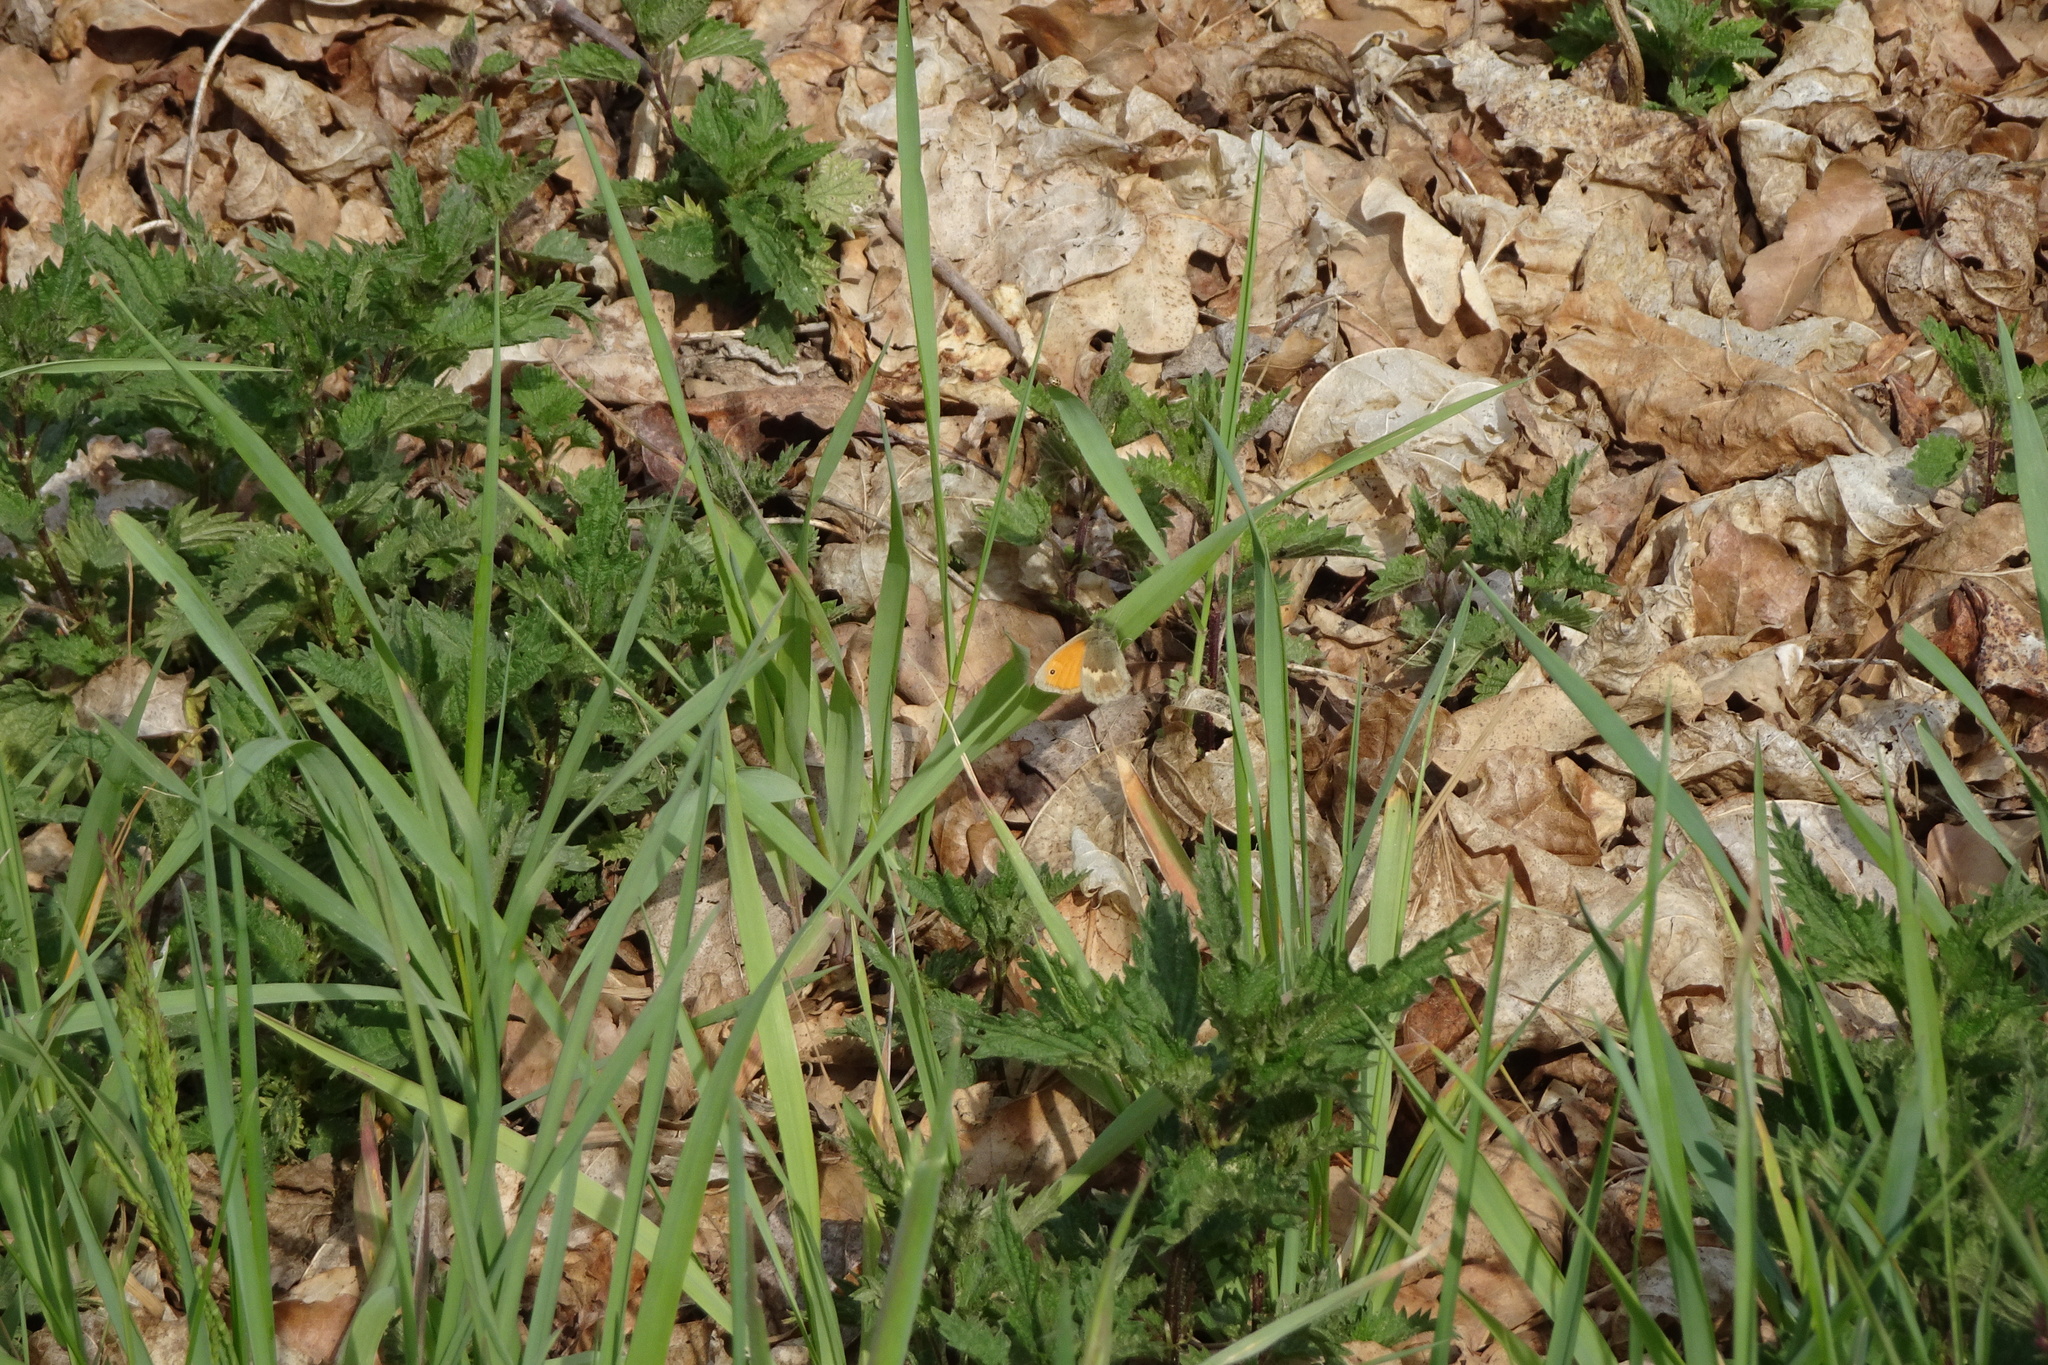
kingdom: Animalia
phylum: Arthropoda
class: Insecta
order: Lepidoptera
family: Nymphalidae
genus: Coenonympha
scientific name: Coenonympha pamphilus
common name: Small heath
